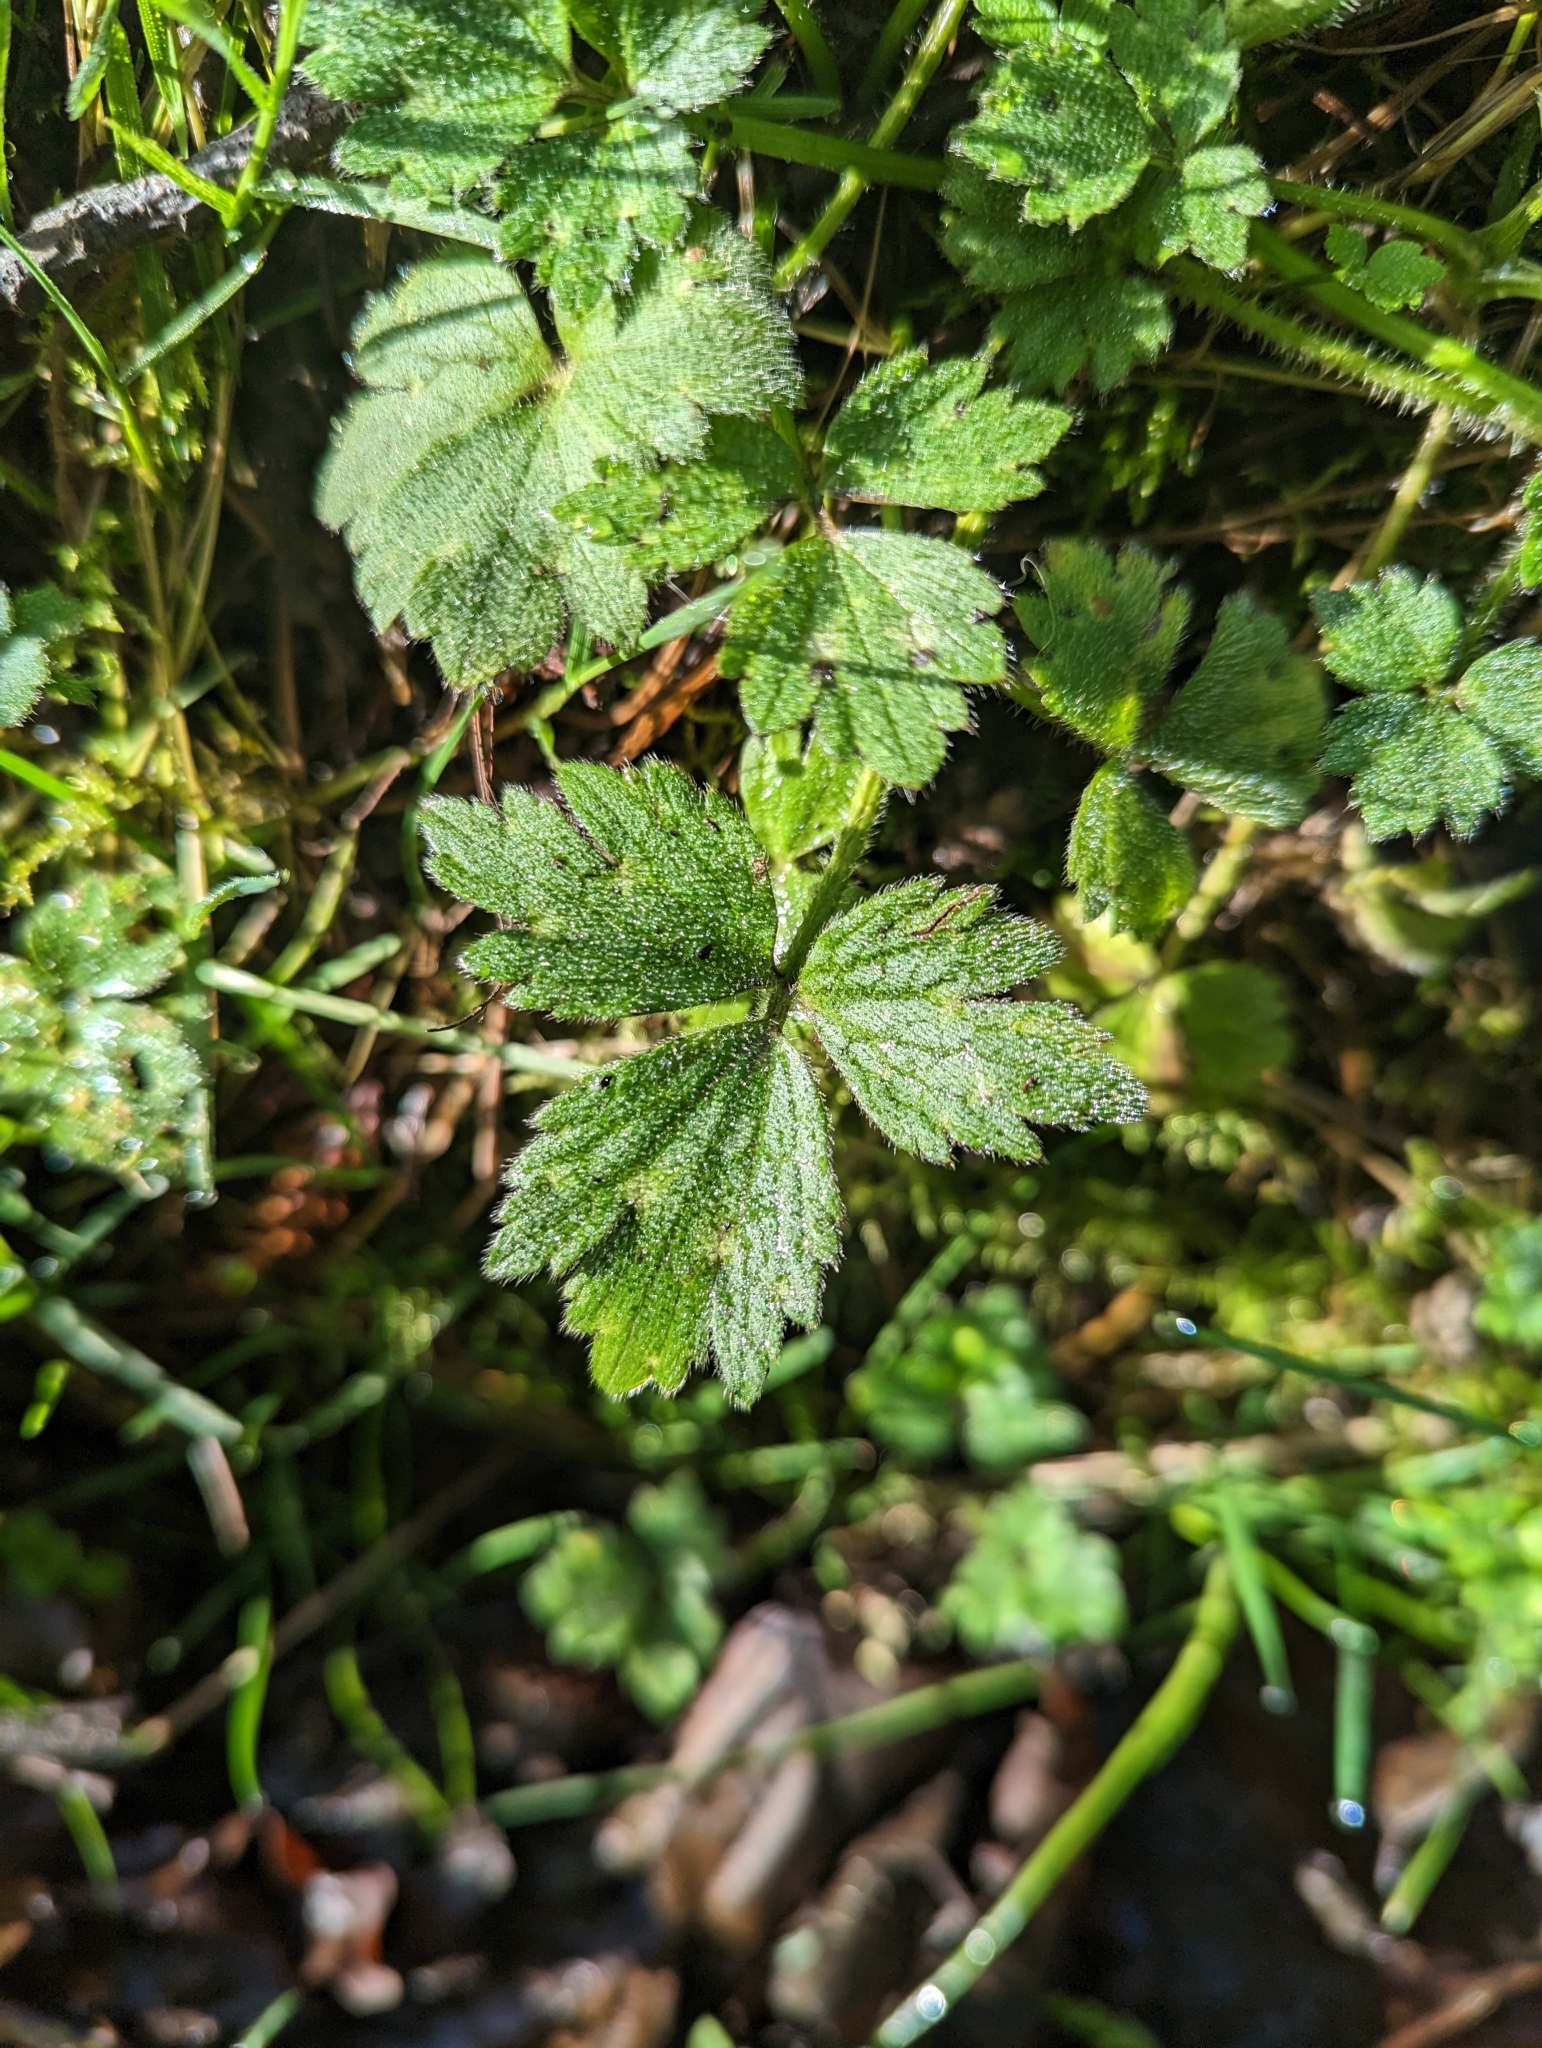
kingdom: Plantae
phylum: Tracheophyta
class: Magnoliopsida
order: Ranunculales
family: Ranunculaceae
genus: Ranunculus
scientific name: Ranunculus repens
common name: Creeping buttercup
